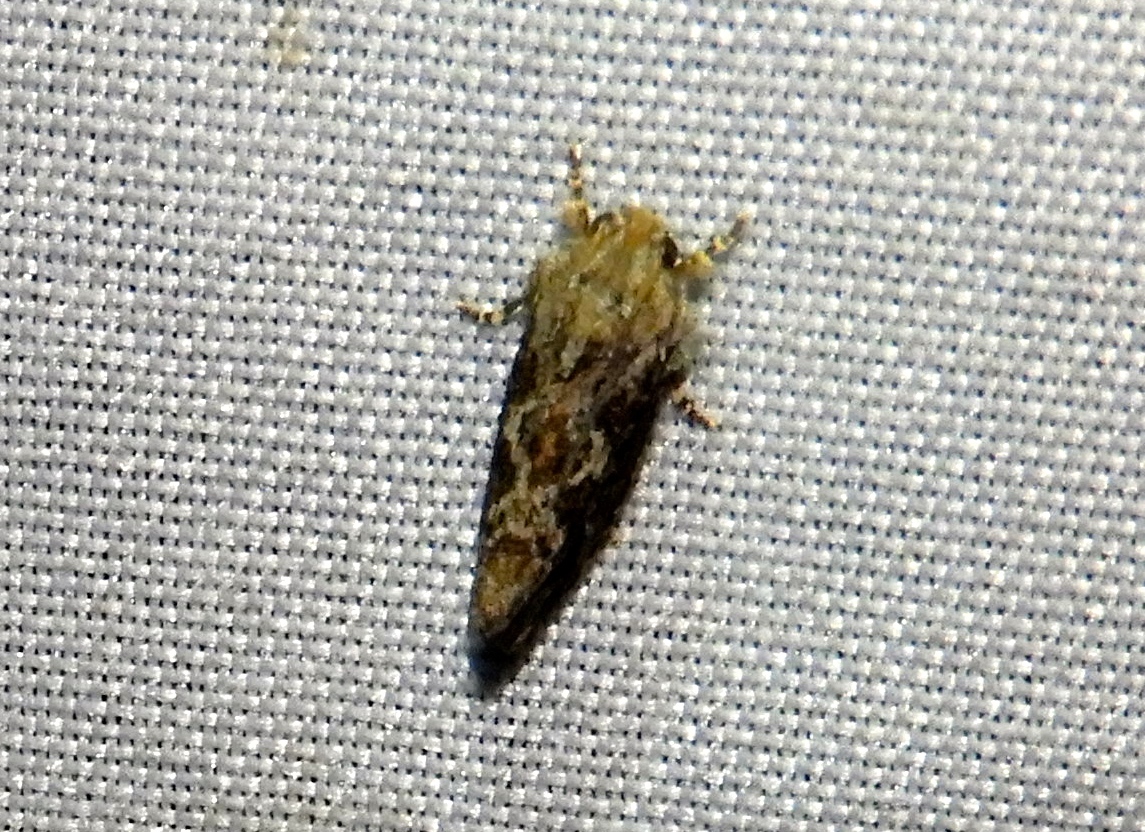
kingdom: Animalia
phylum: Arthropoda
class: Insecta
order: Lepidoptera
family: Tineidae
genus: Acrolophus
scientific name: Acrolophus
